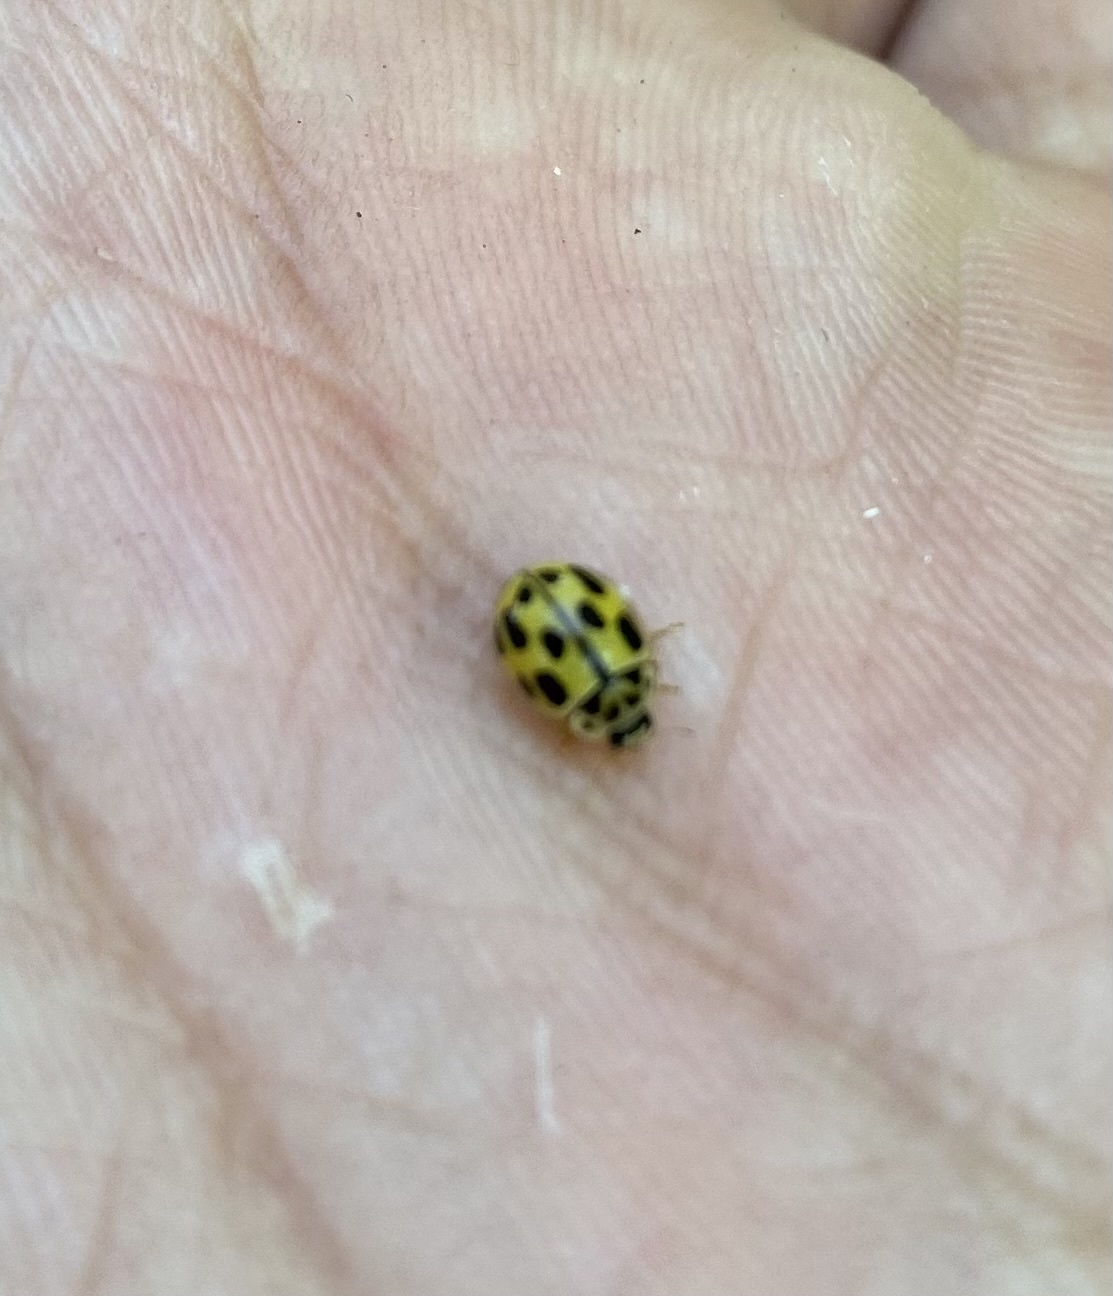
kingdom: Animalia
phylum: Arthropoda
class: Insecta
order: Coleoptera
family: Coccinellidae
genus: Propylaea
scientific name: Propylaea quatuordecimpunctata
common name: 14-spotted ladybird beetle
